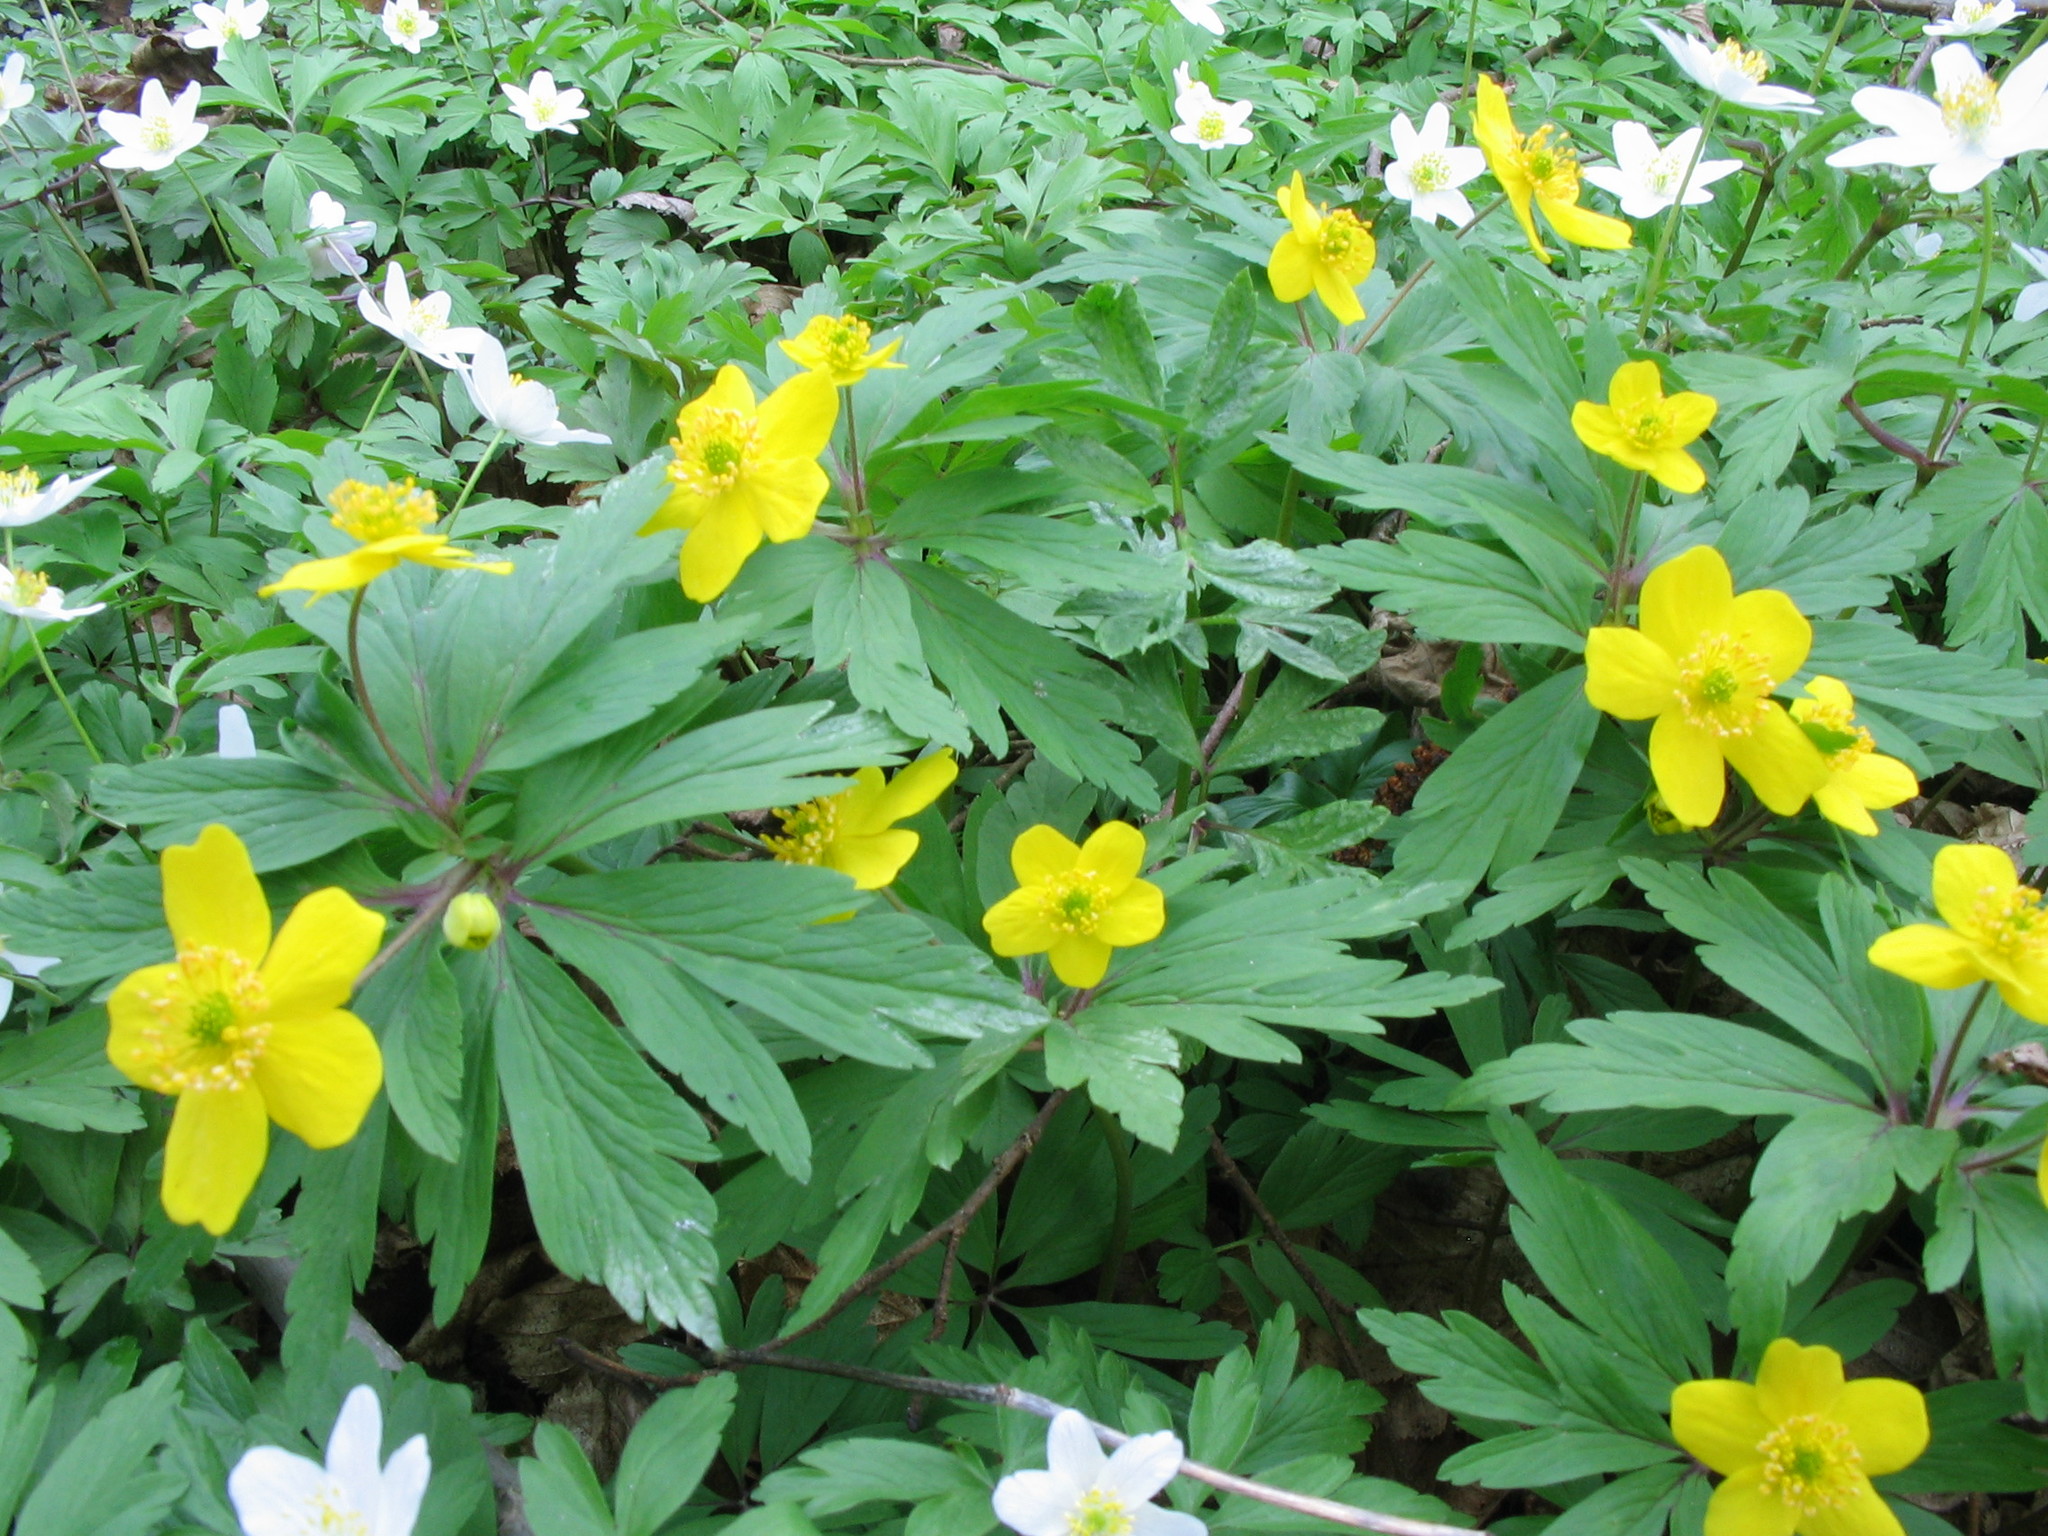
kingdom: Plantae
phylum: Tracheophyta
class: Magnoliopsida
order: Ranunculales
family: Ranunculaceae
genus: Anemone
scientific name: Anemone ranunculoides
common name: Yellow anemone
